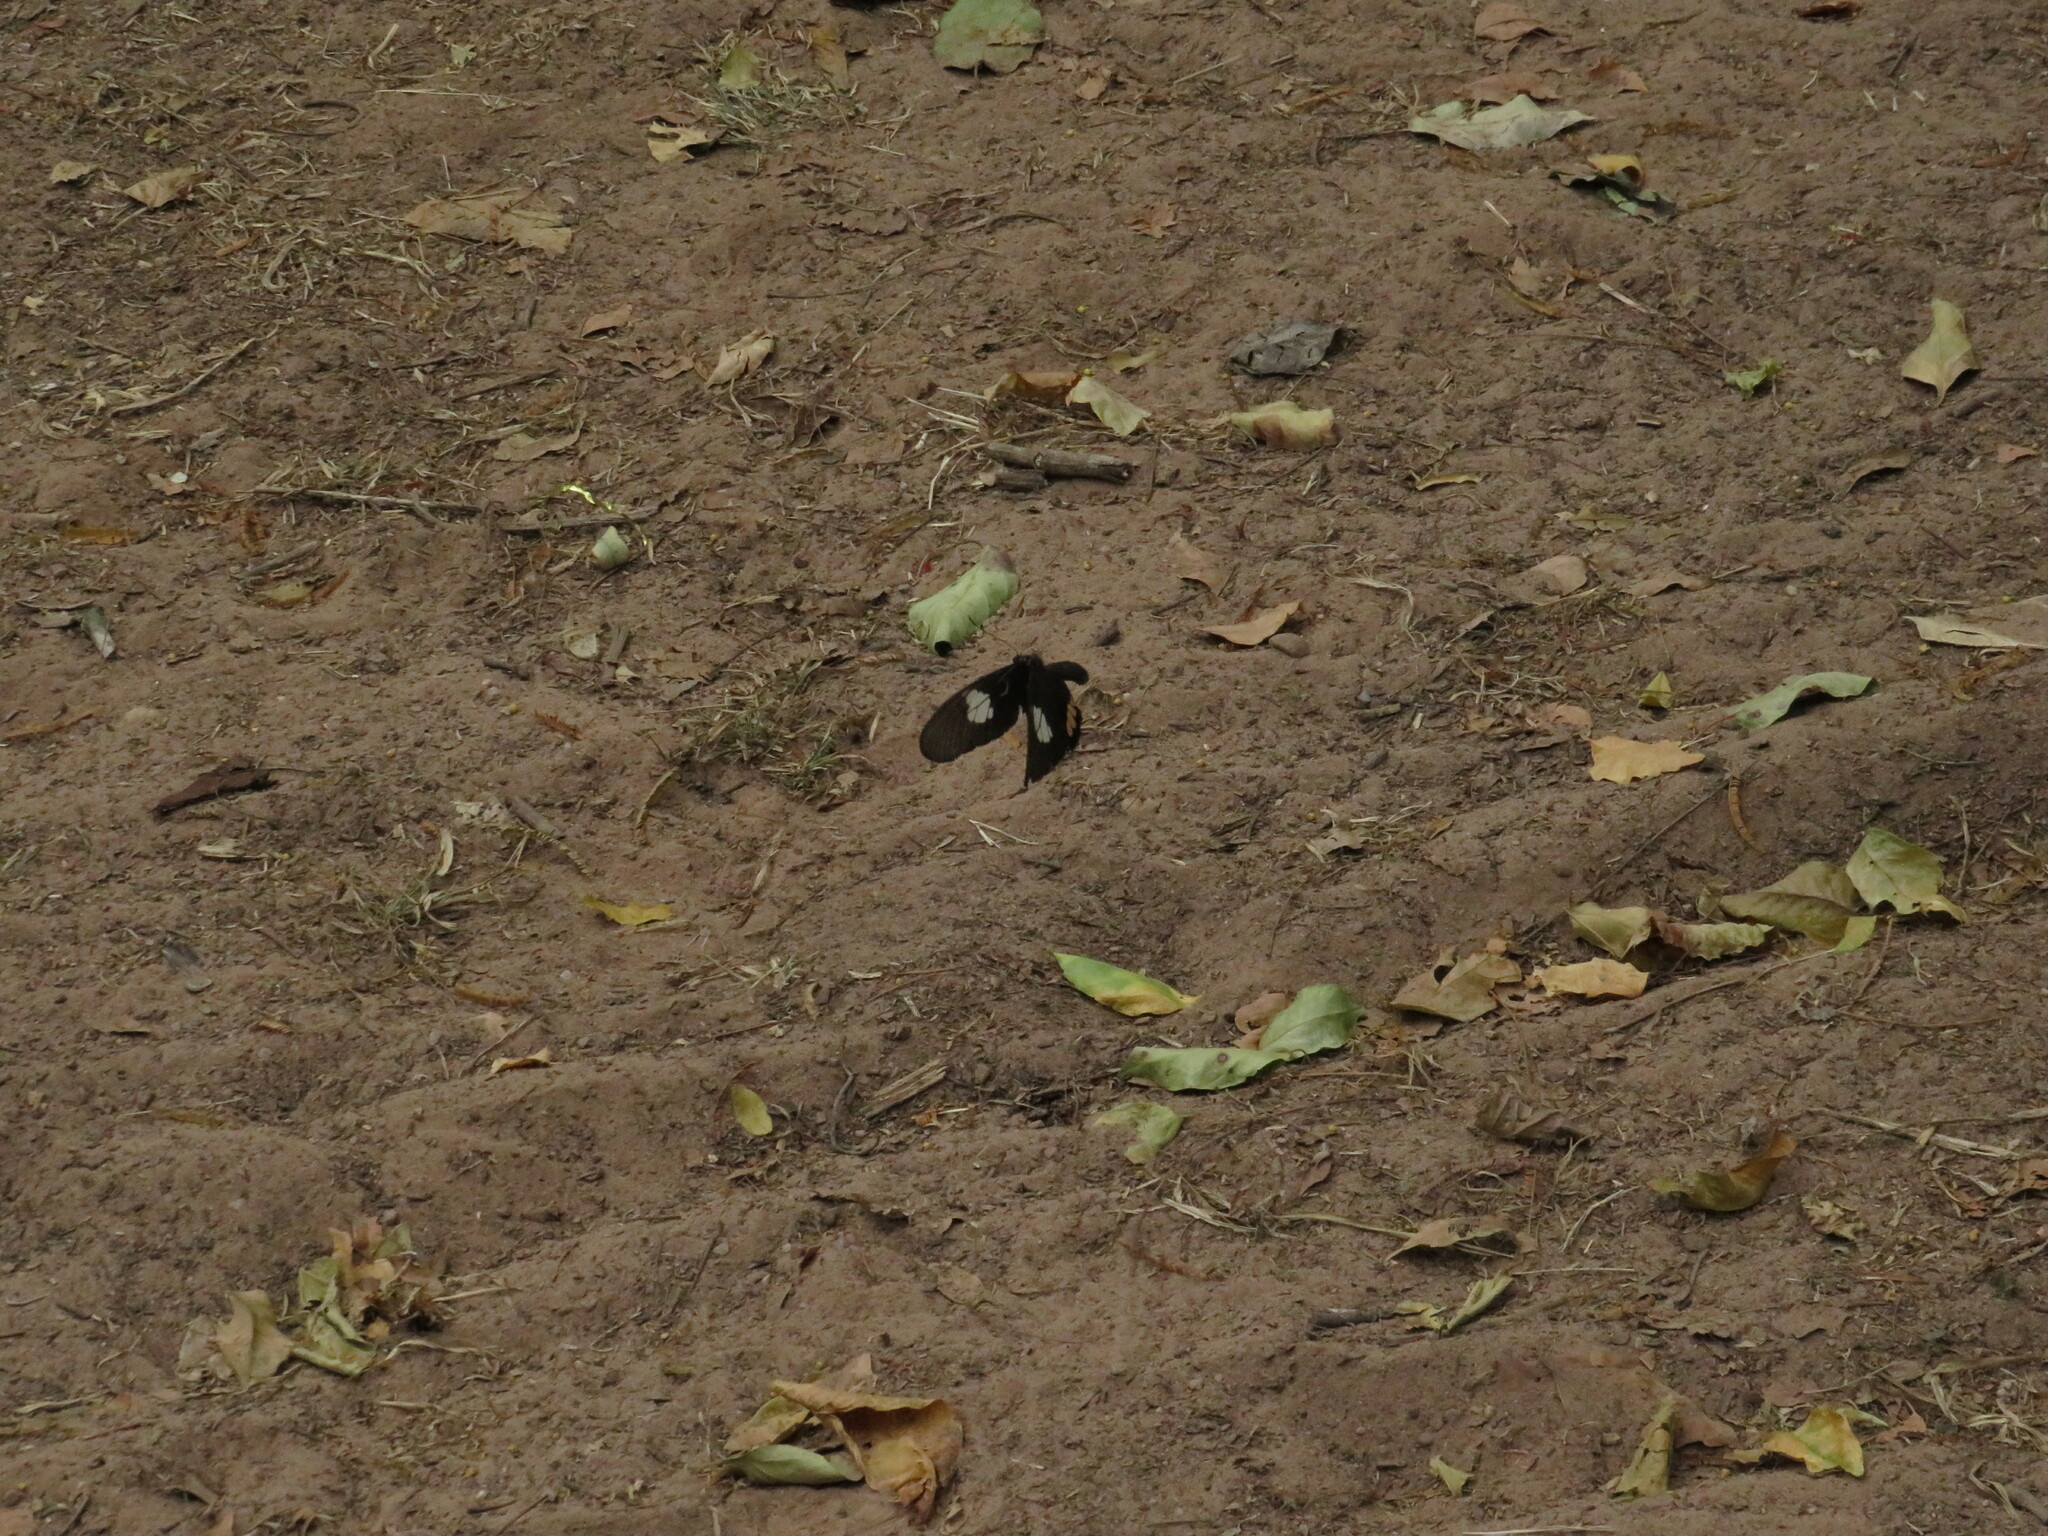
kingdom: Animalia
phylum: Arthropoda
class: Insecta
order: Lepidoptera
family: Papilionidae
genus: Parides
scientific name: Parides erithalion
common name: Variable cattleheart
